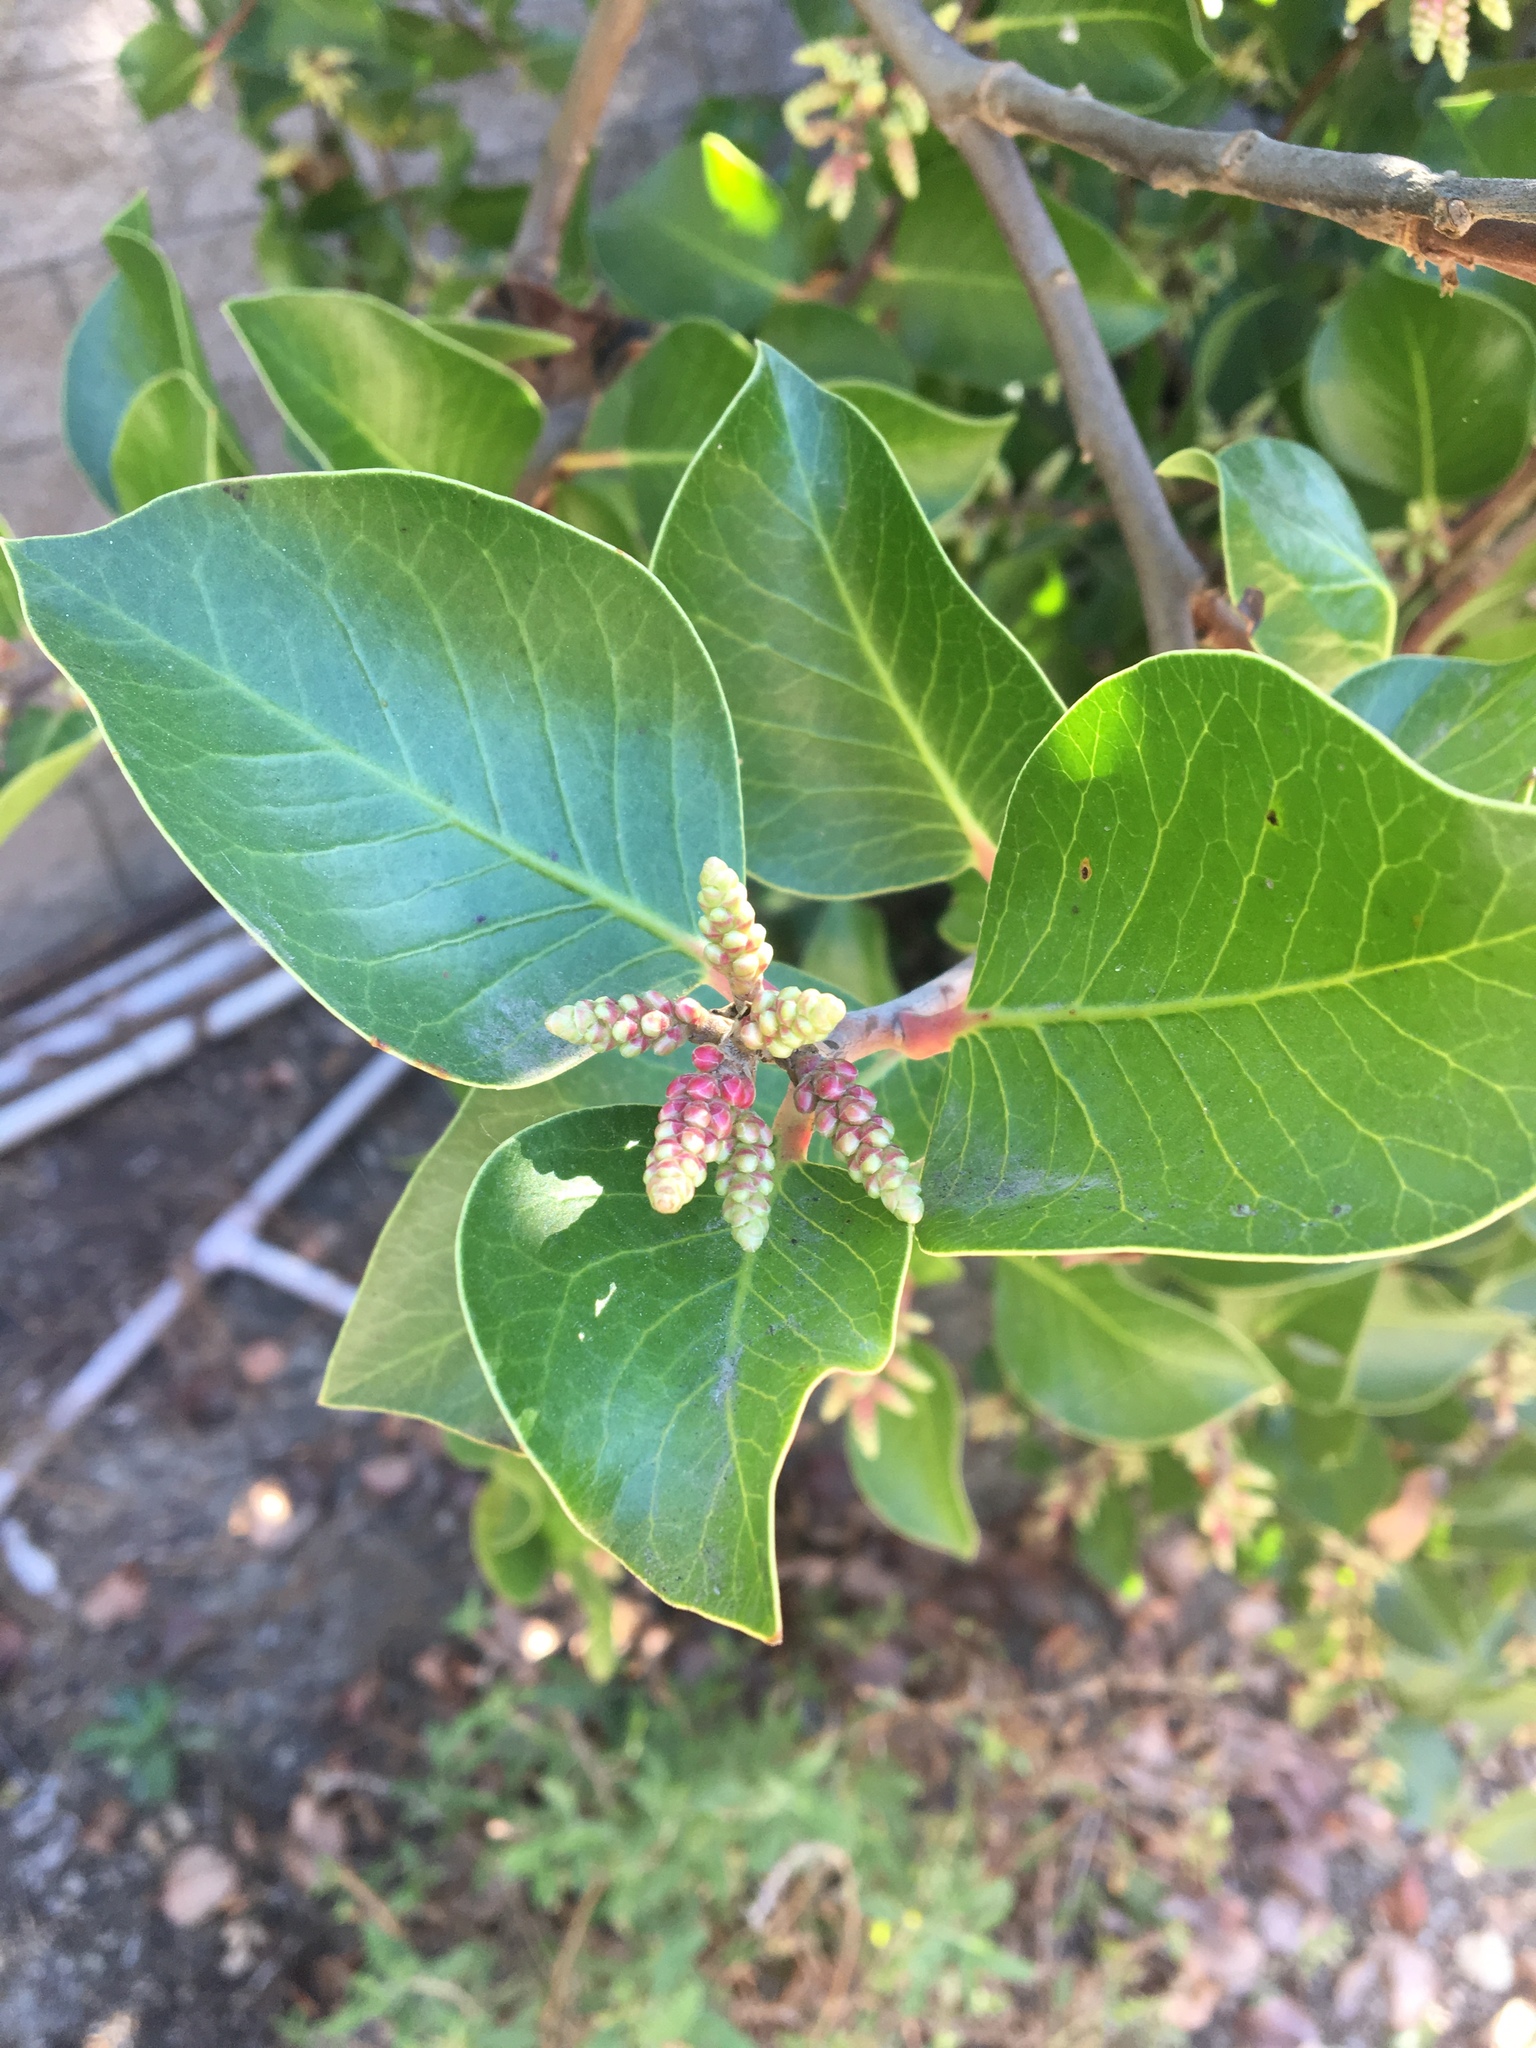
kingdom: Plantae
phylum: Tracheophyta
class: Magnoliopsida
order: Sapindales
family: Anacardiaceae
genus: Rhus
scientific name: Rhus ovata
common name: Sugar sumac
